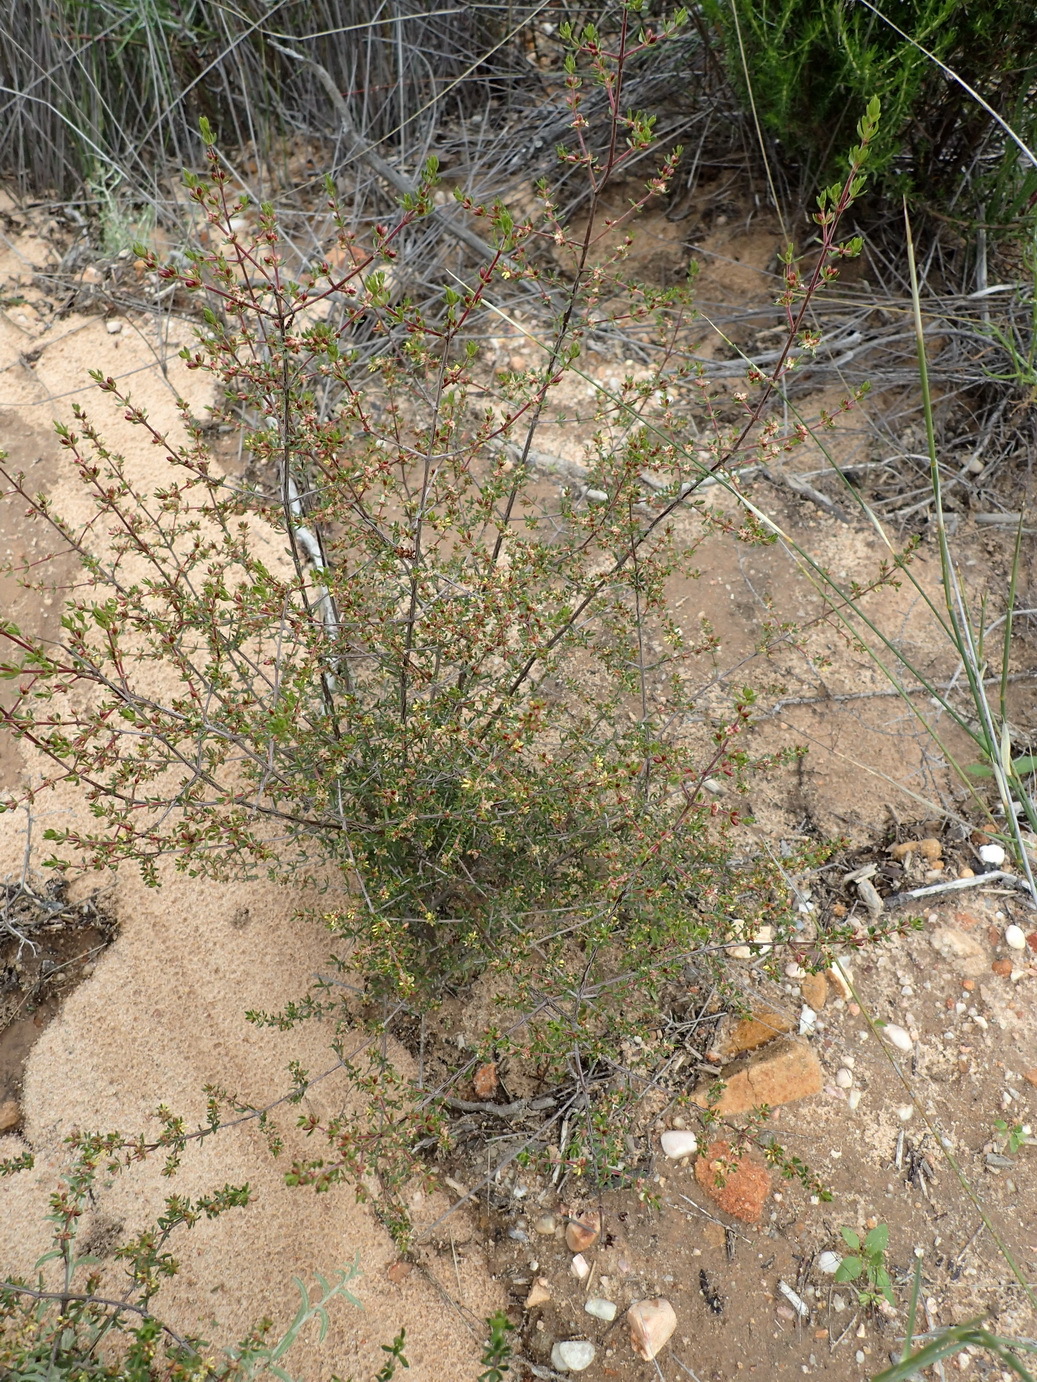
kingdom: Plantae
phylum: Tracheophyta
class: Magnoliopsida
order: Gentianales
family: Rubiaceae
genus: Anthospermum
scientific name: Anthospermum spathulatum
